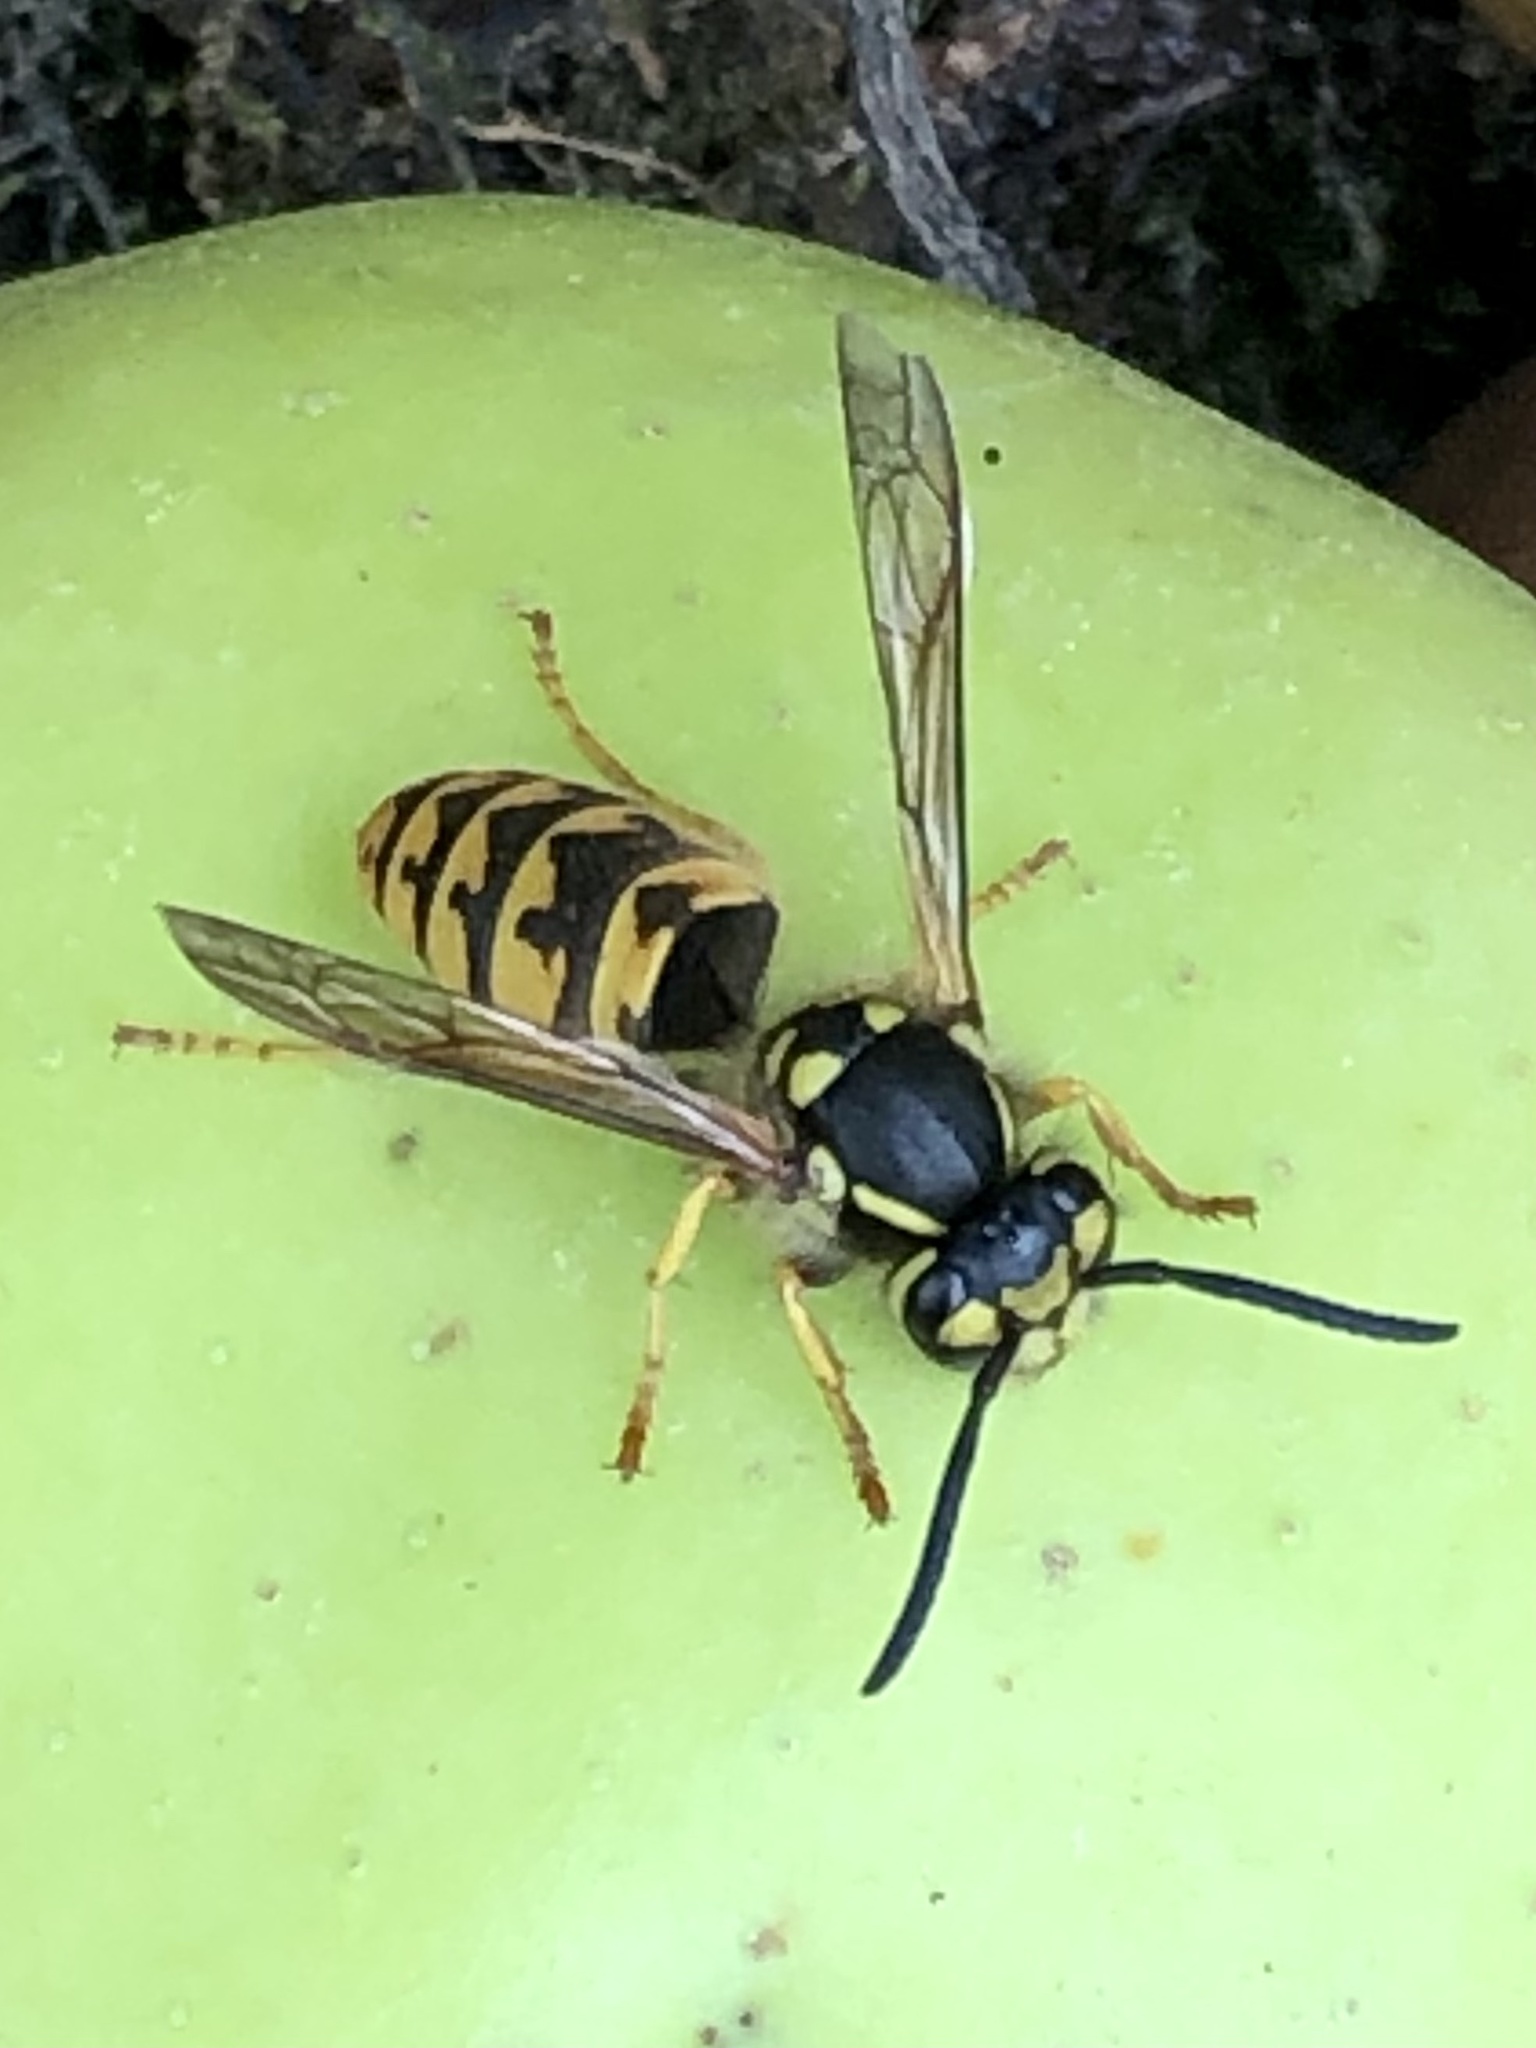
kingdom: Animalia
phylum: Arthropoda
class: Insecta
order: Hymenoptera
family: Vespidae
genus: Vespula
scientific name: Vespula germanica
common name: German wasp
